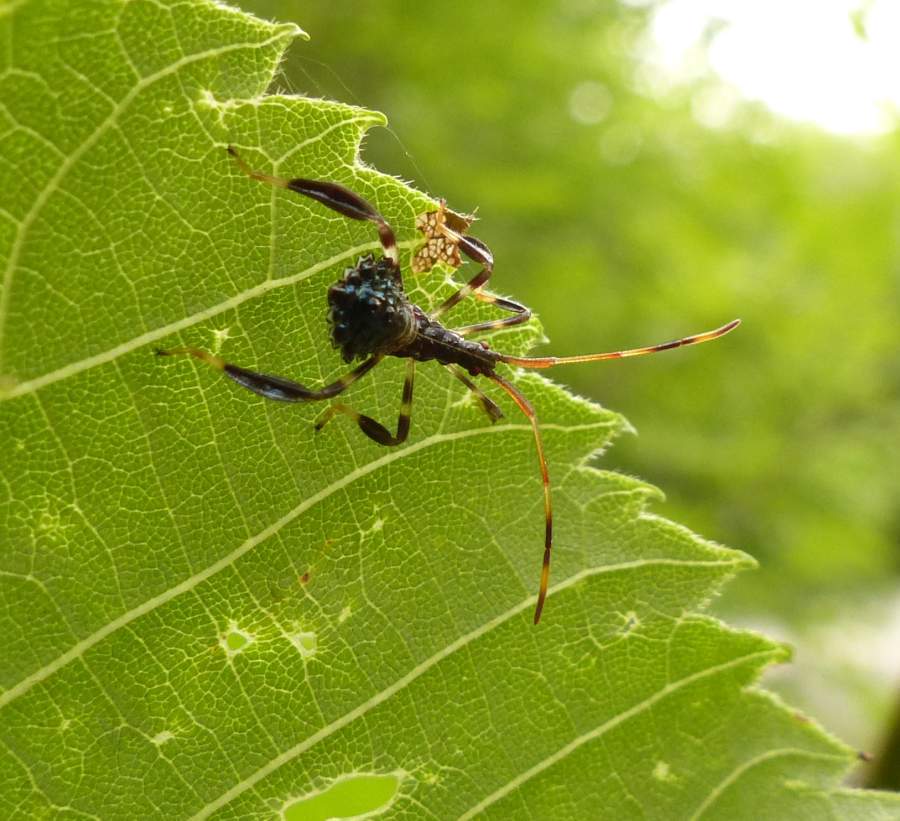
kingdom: Animalia
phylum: Arthropoda
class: Insecta
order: Hemiptera
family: Coreidae
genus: Acanthocephala
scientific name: Acanthocephala terminalis
